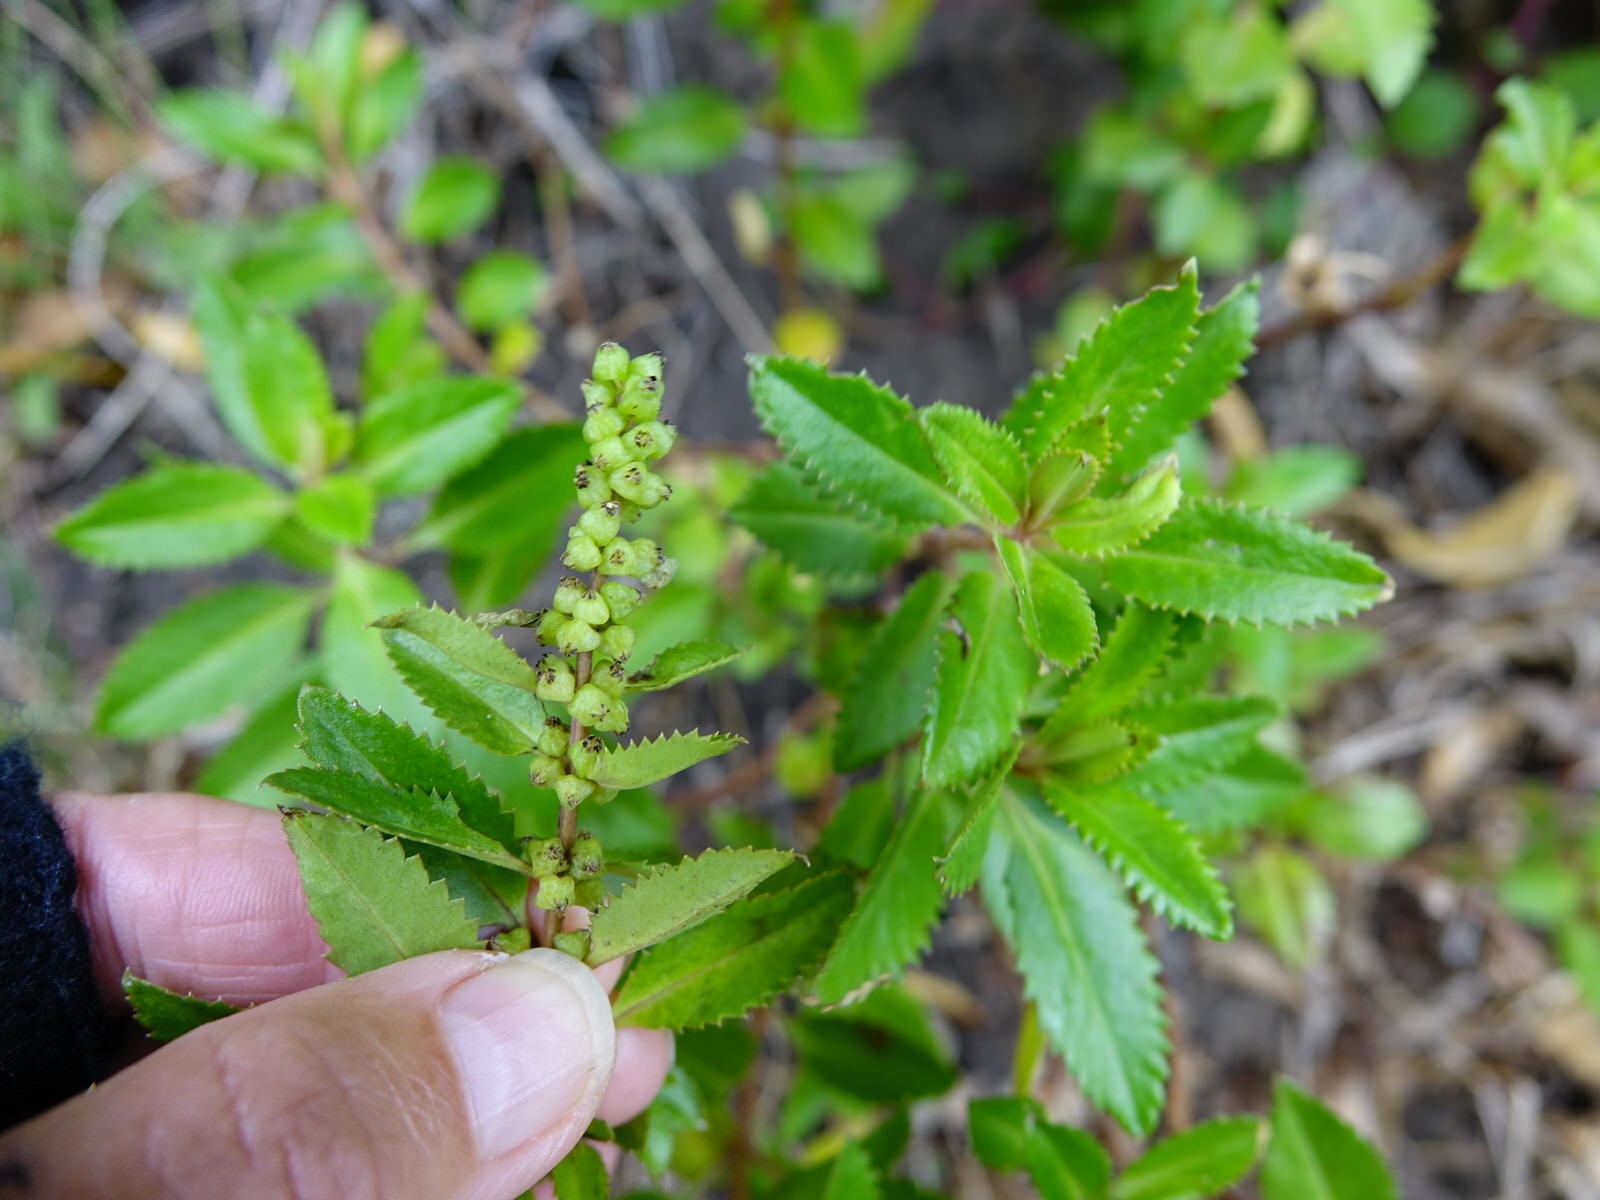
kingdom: Plantae
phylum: Tracheophyta
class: Magnoliopsida
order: Saxifragales
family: Haloragaceae
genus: Haloragis
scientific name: Haloragis erecta
